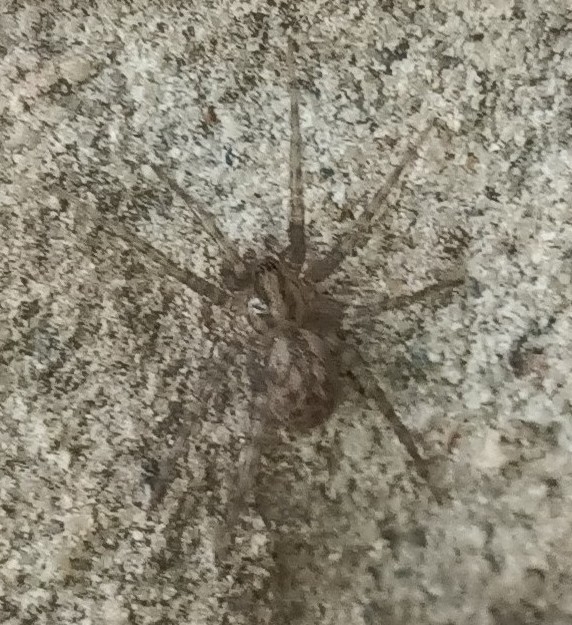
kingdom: Animalia
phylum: Arthropoda
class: Arachnida
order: Araneae
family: Agelenidae
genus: Tegenaria
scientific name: Tegenaria domestica
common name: Barn funnel weaver
